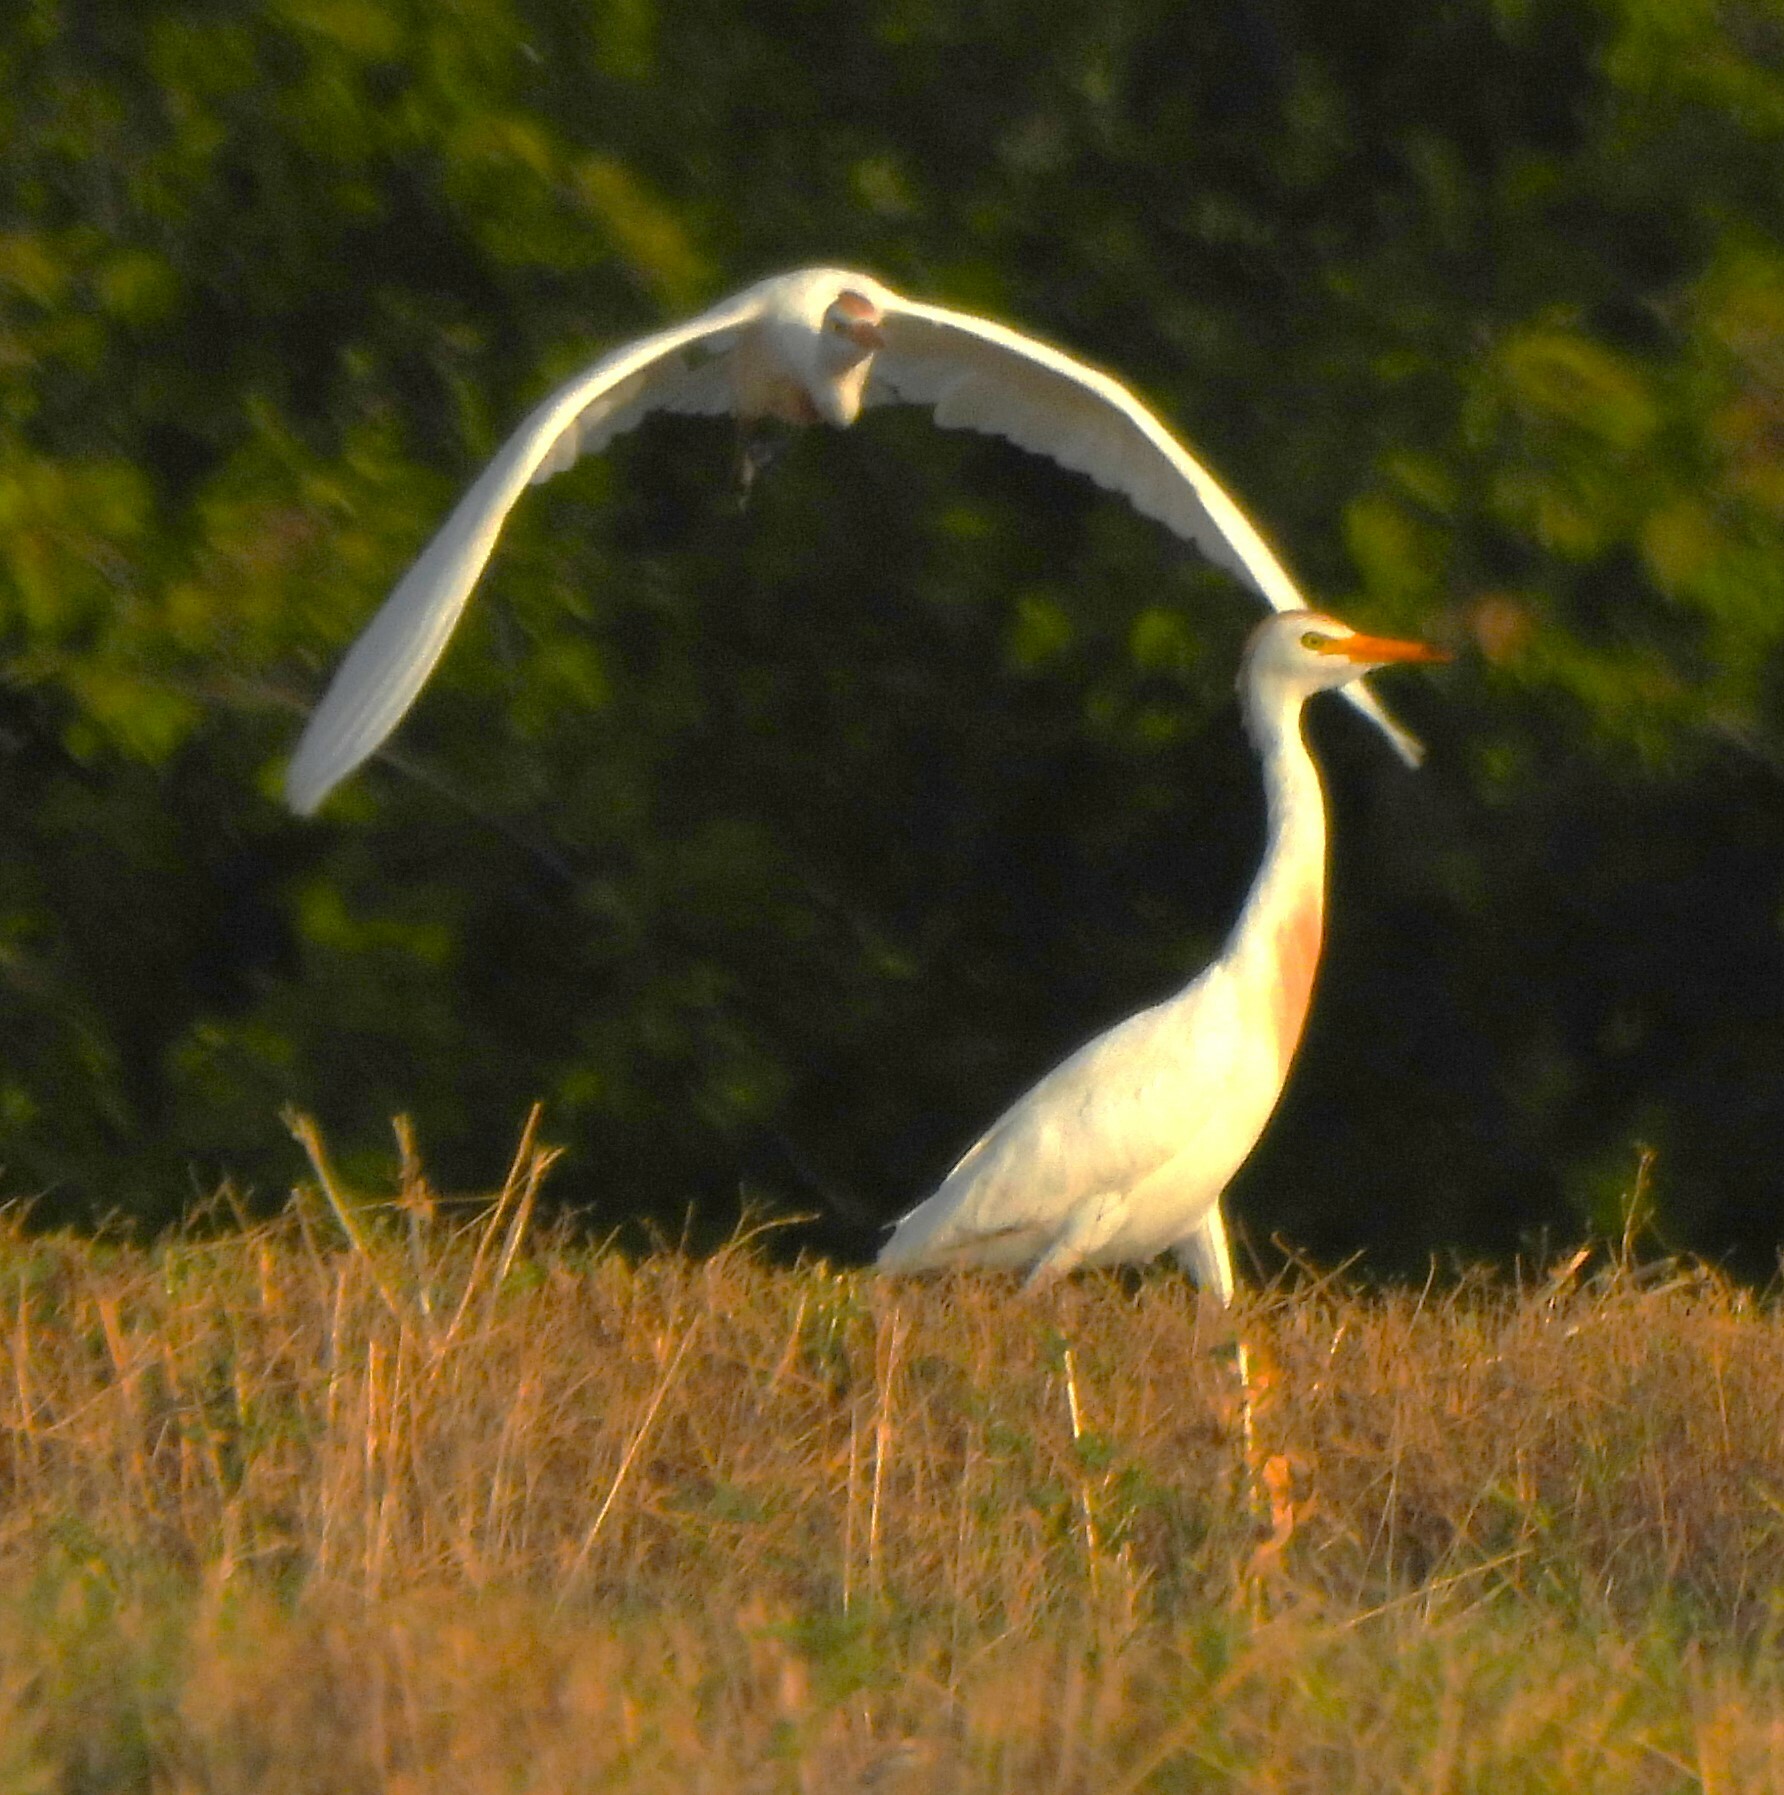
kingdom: Animalia
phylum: Chordata
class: Aves
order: Pelecaniformes
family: Ardeidae
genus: Bubulcus
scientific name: Bubulcus ibis
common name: Cattle egret
